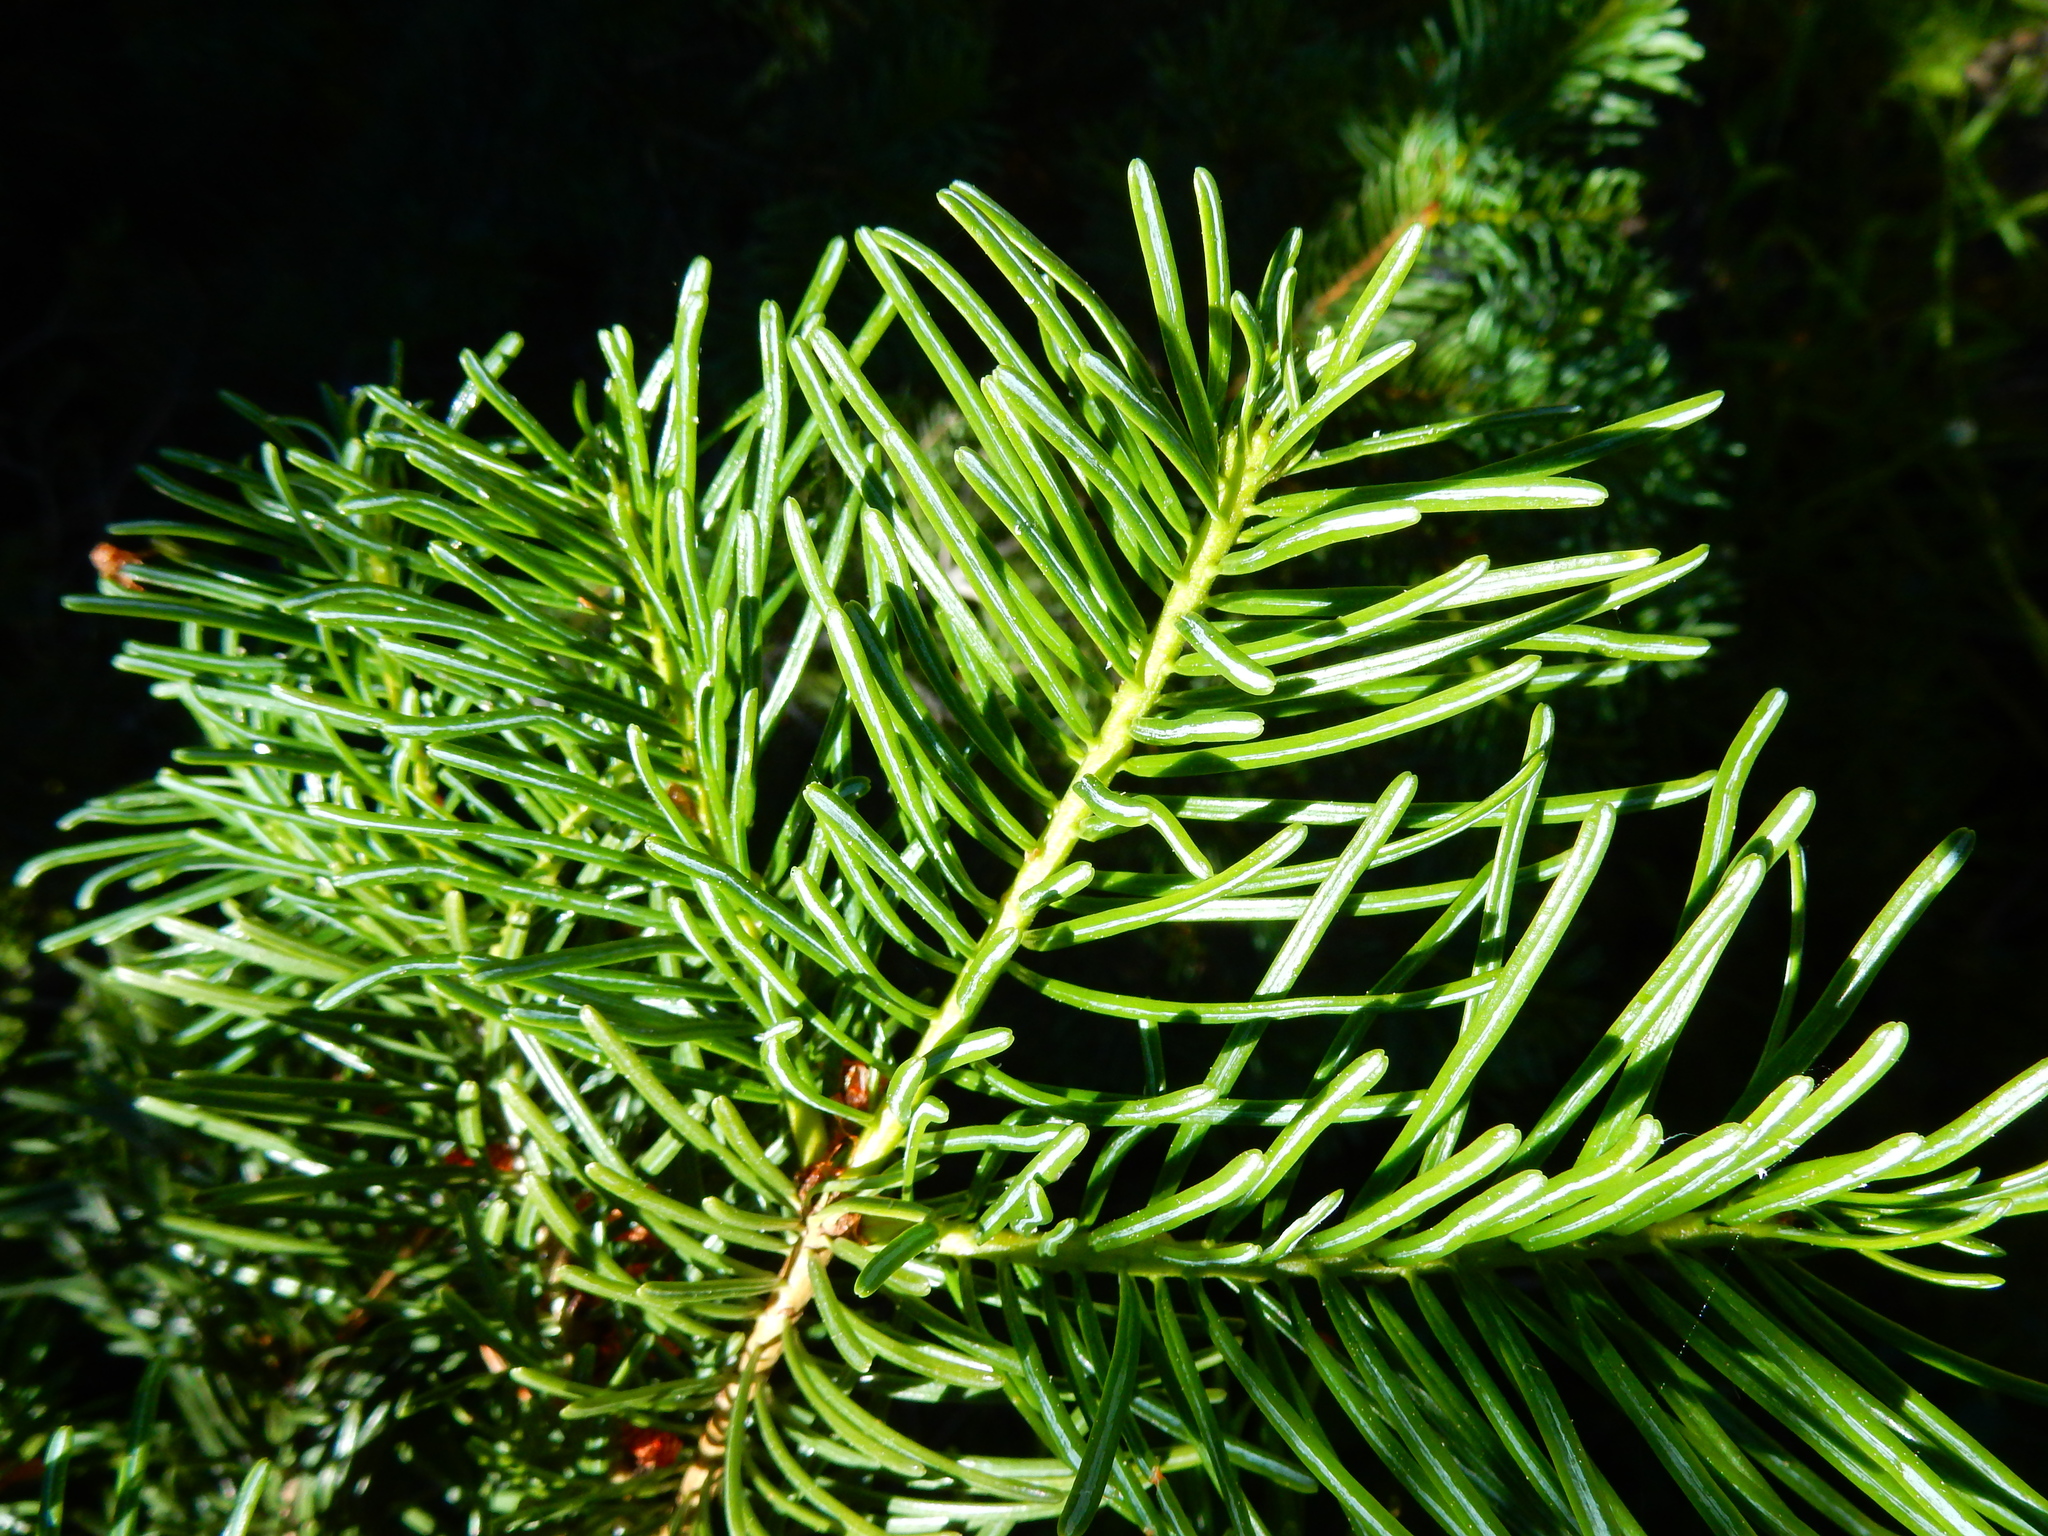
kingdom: Plantae
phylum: Tracheophyta
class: Pinopsida
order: Pinales
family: Pinaceae
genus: Abies
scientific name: Abies concolor
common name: Colorado fir
